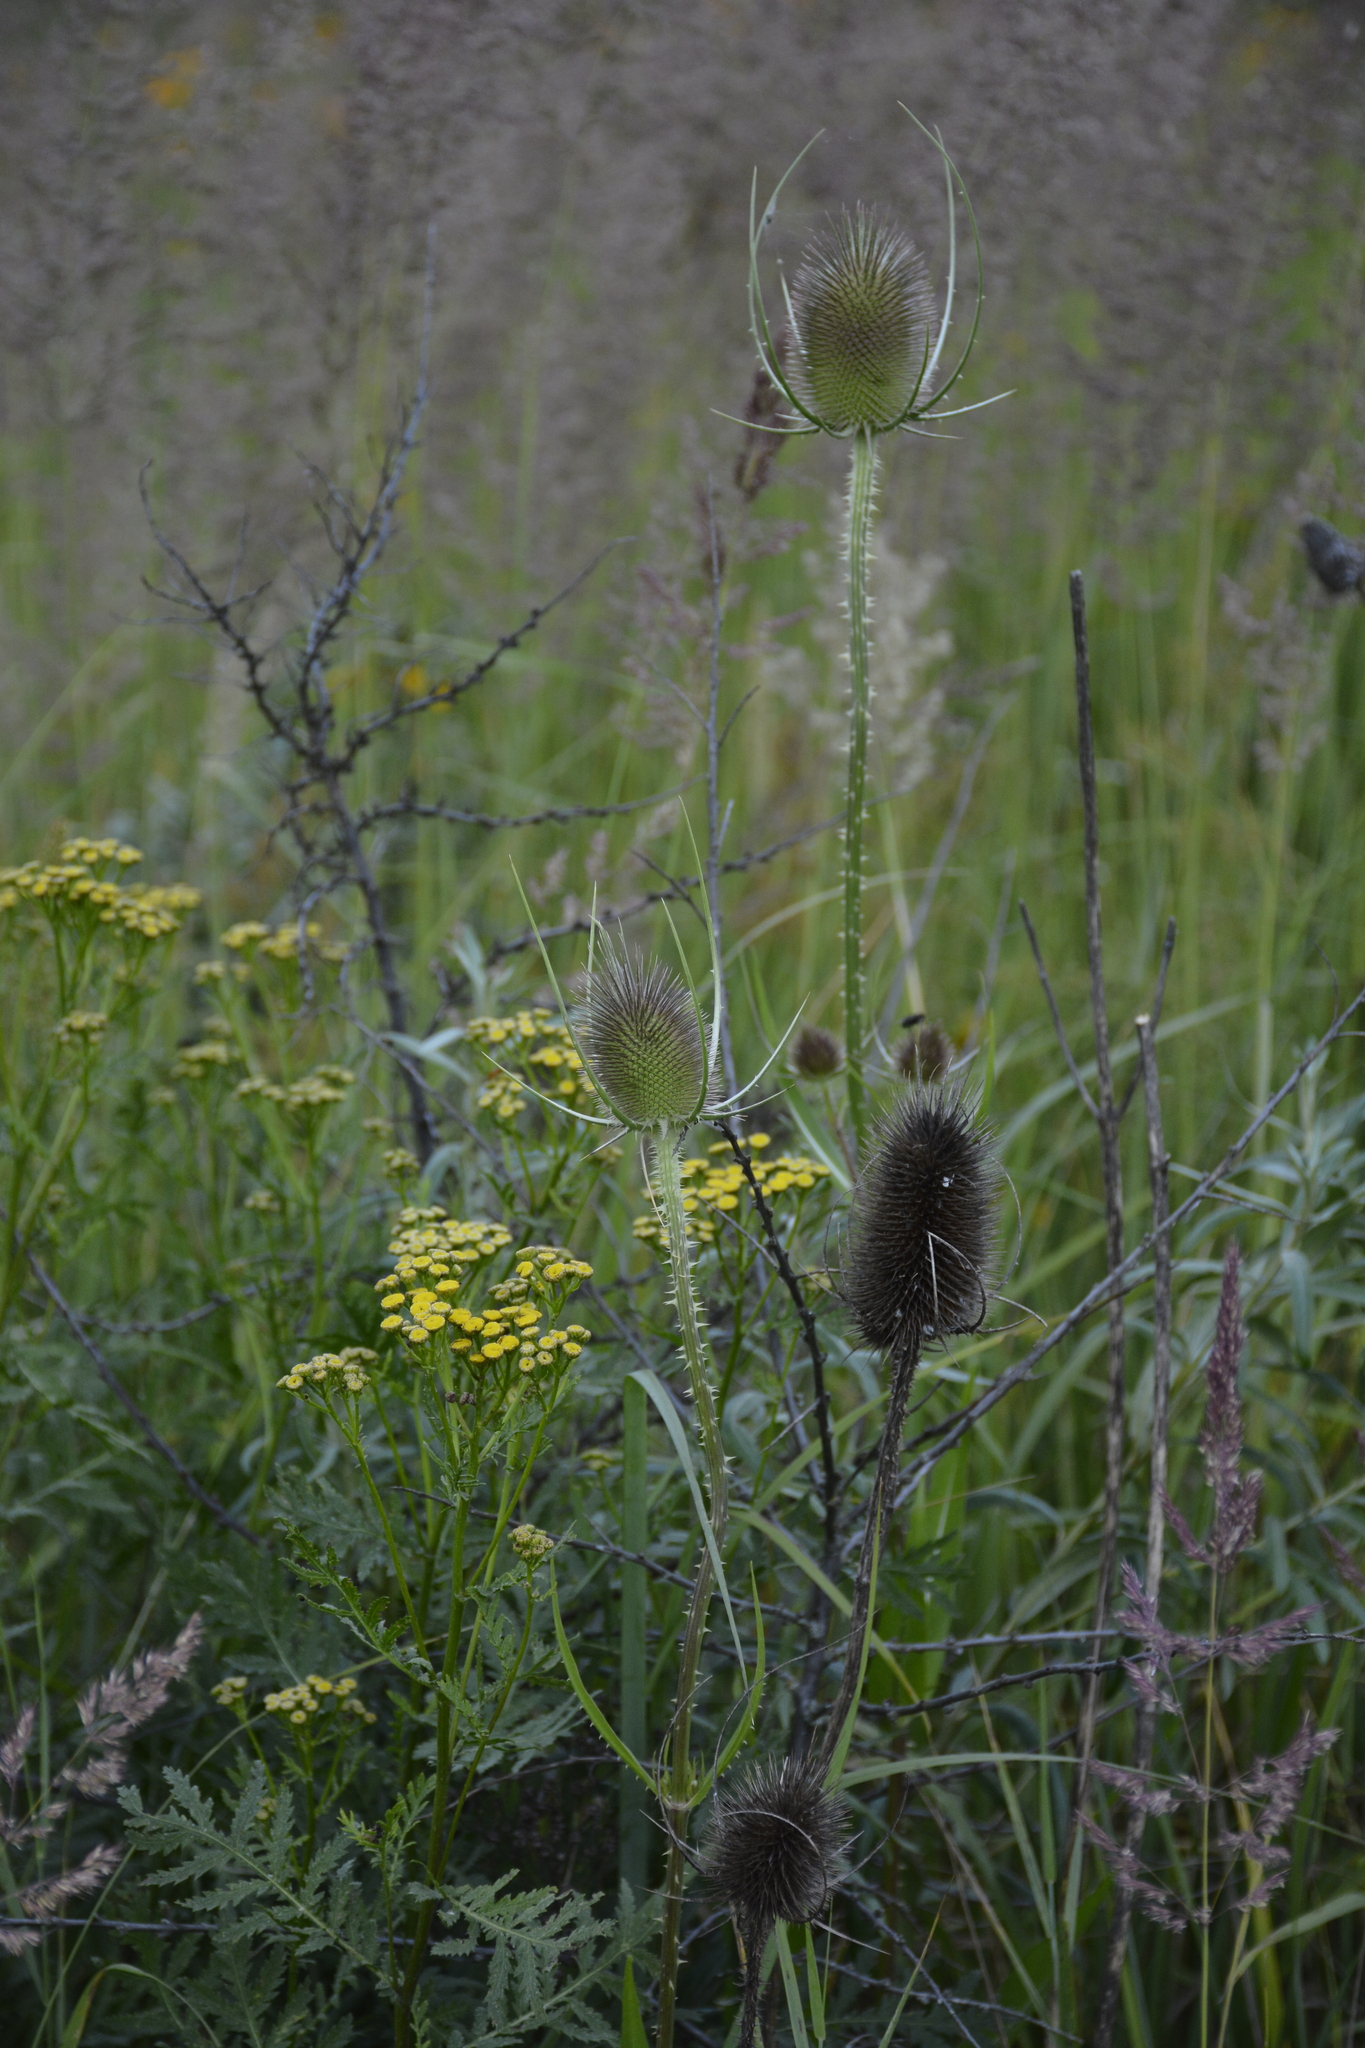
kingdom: Plantae
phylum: Tracheophyta
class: Magnoliopsida
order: Dipsacales
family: Caprifoliaceae
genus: Dipsacus
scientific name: Dipsacus fullonum
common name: Teasel
